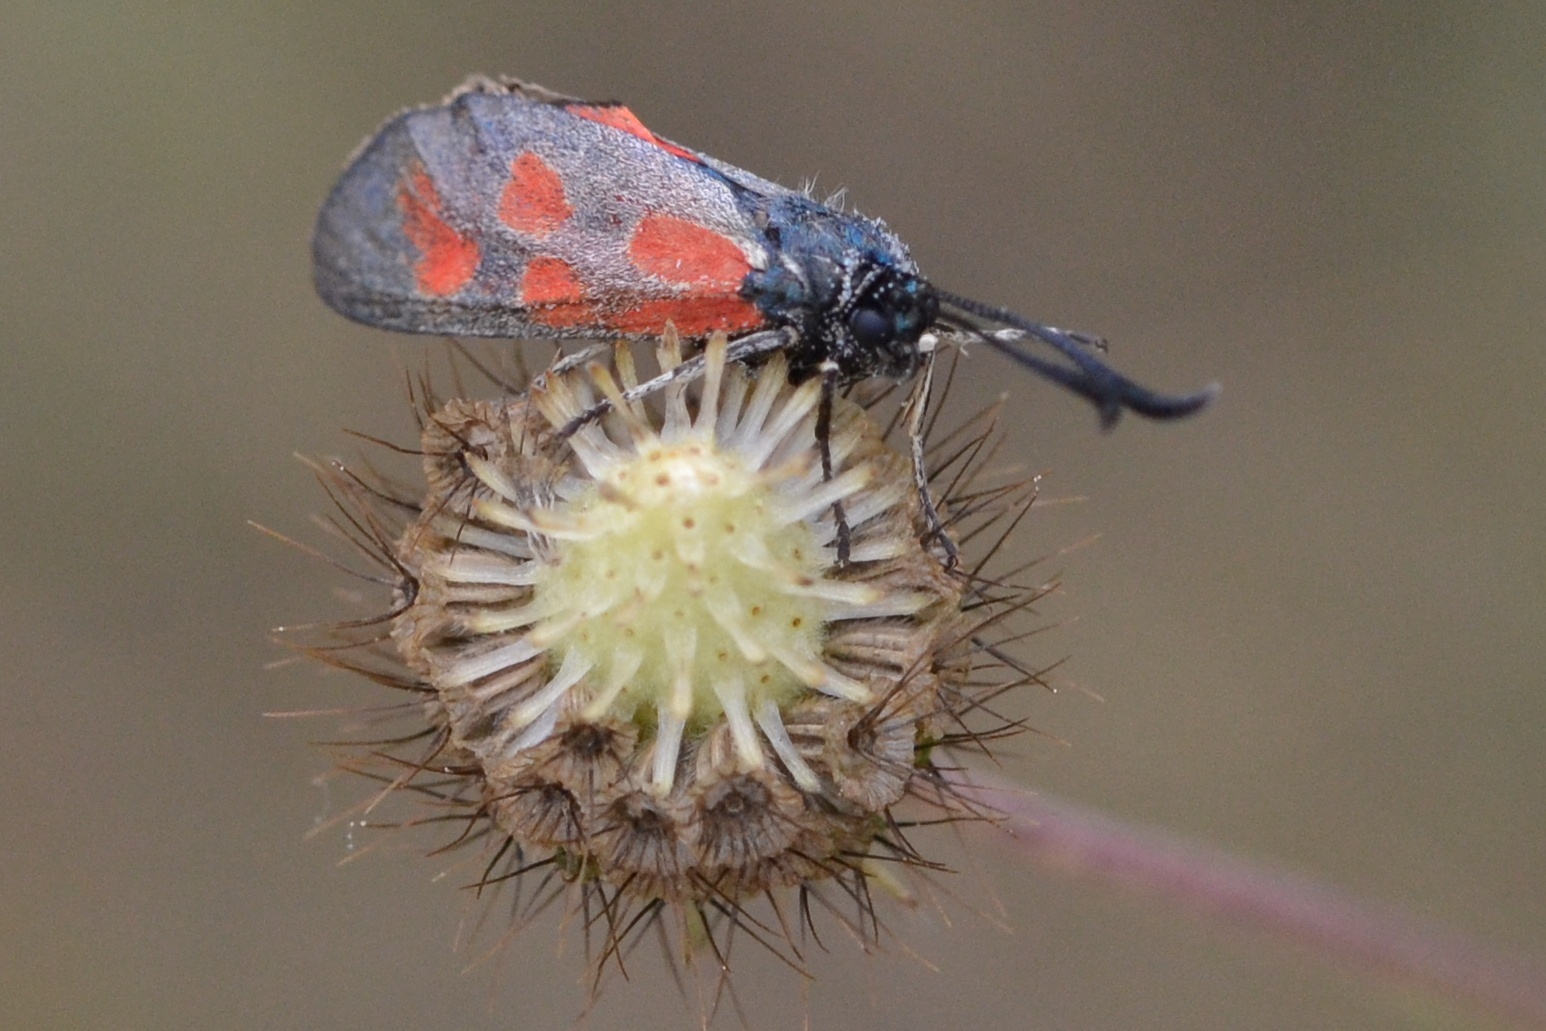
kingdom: Animalia
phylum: Arthropoda
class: Insecta
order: Lepidoptera
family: Zygaenidae
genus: Zygaena
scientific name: Zygaena loti
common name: Slender scotch burnet
